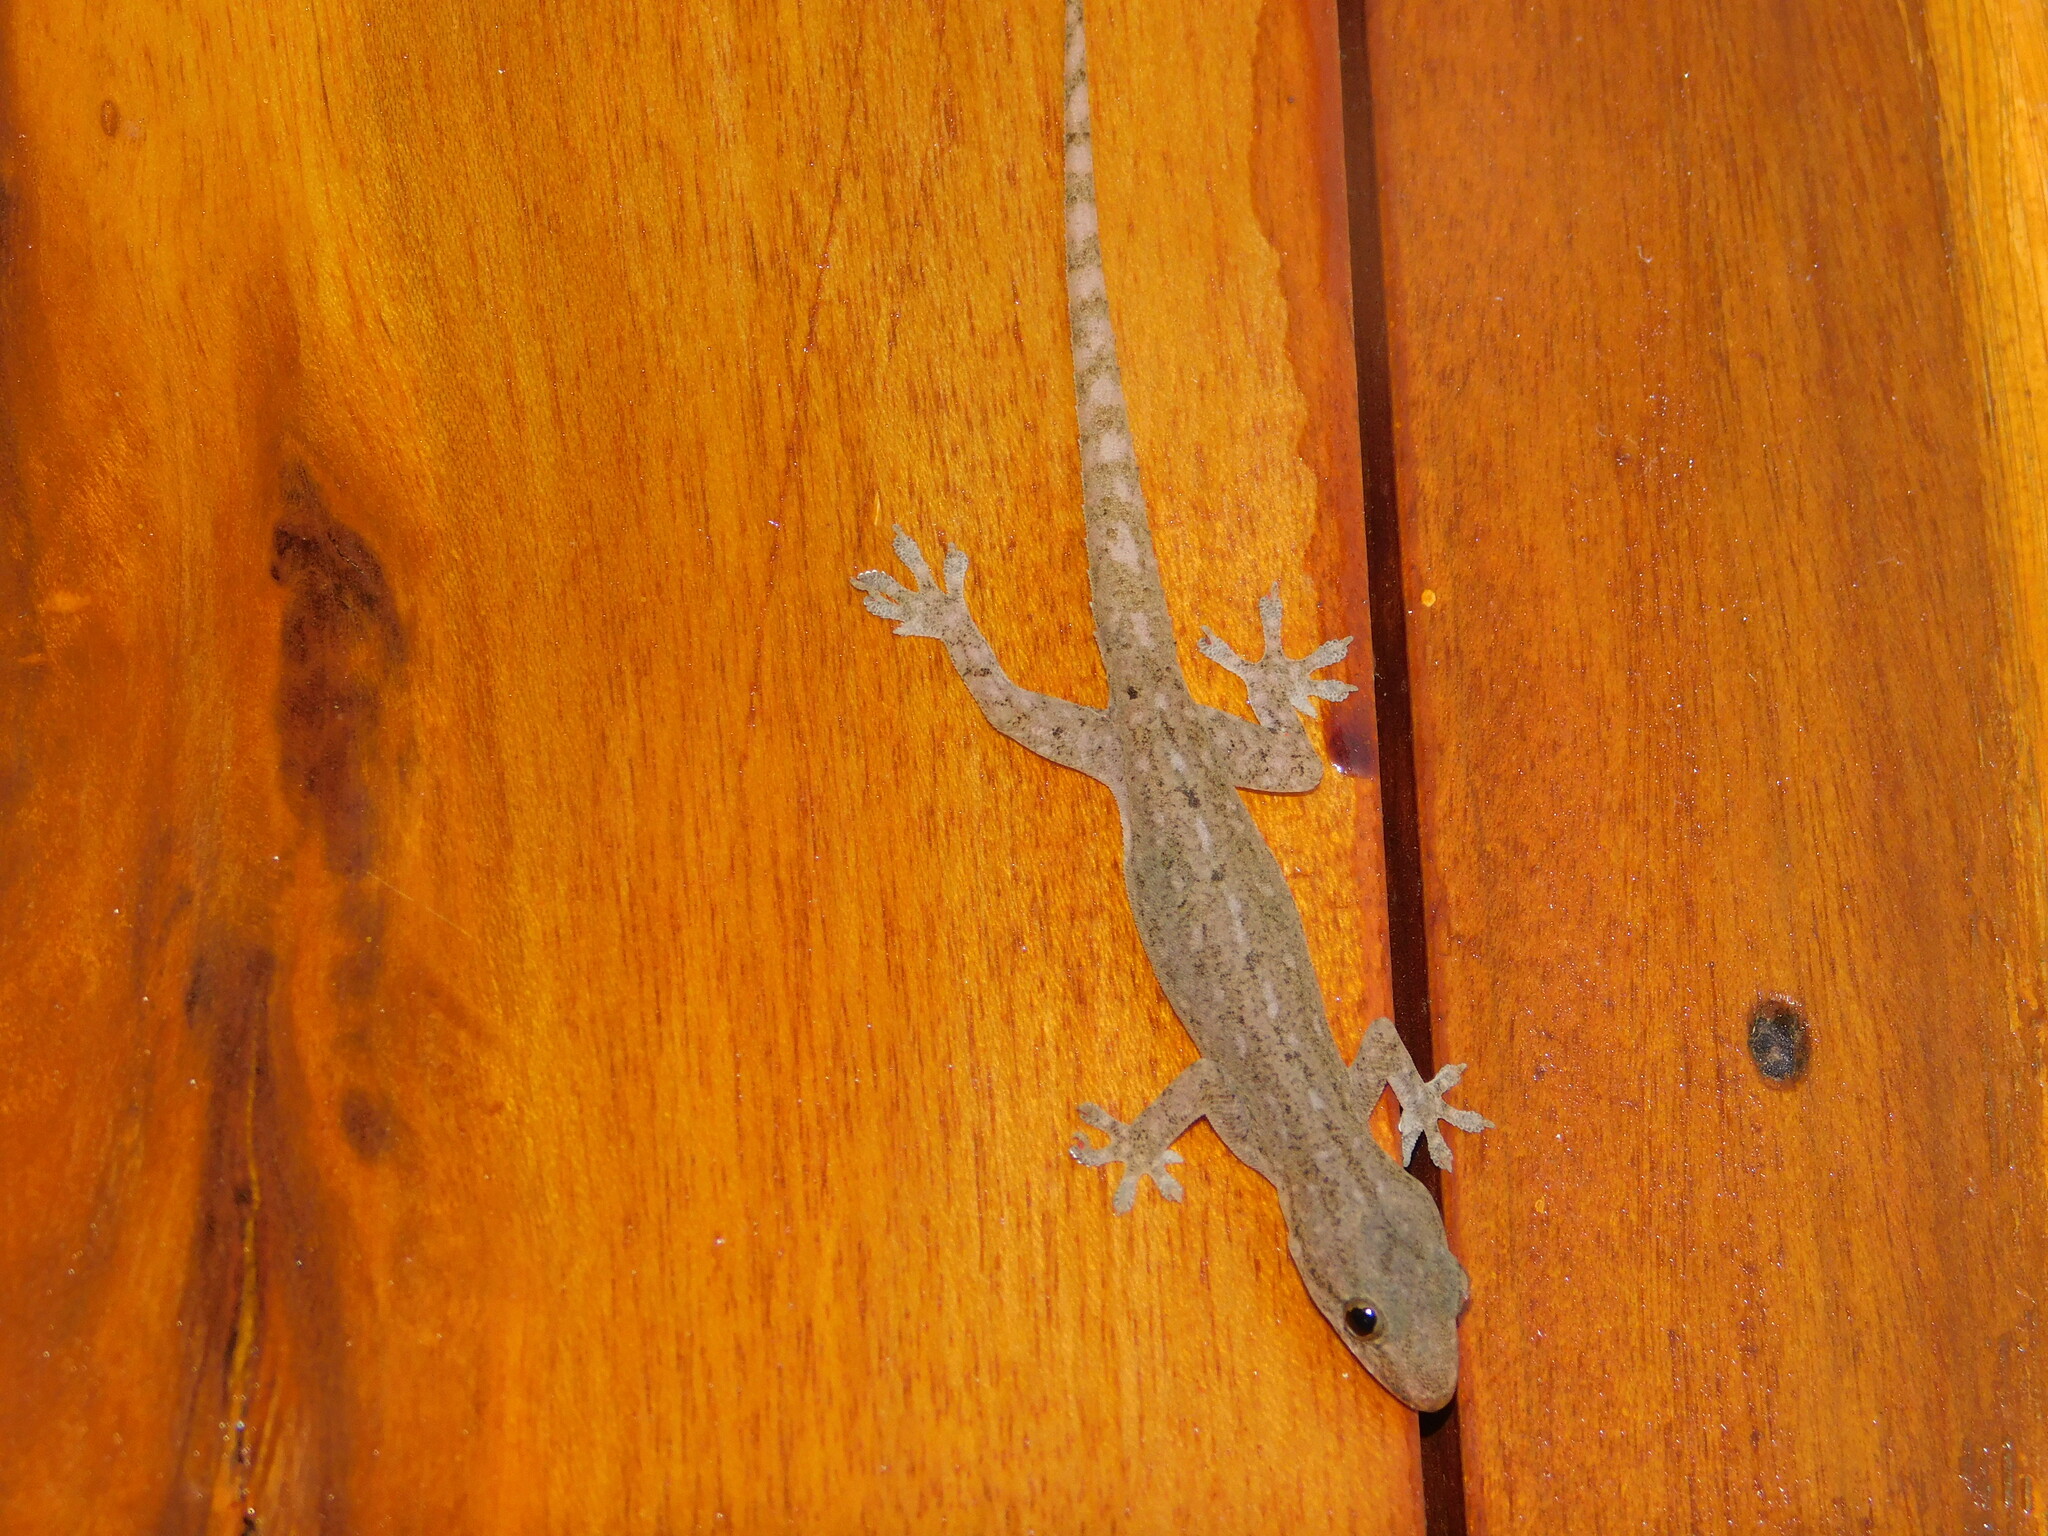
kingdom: Animalia
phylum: Chordata
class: Squamata
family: Gekkonidae
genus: Hemidactylus
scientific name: Hemidactylus frenatus
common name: Common house gecko
